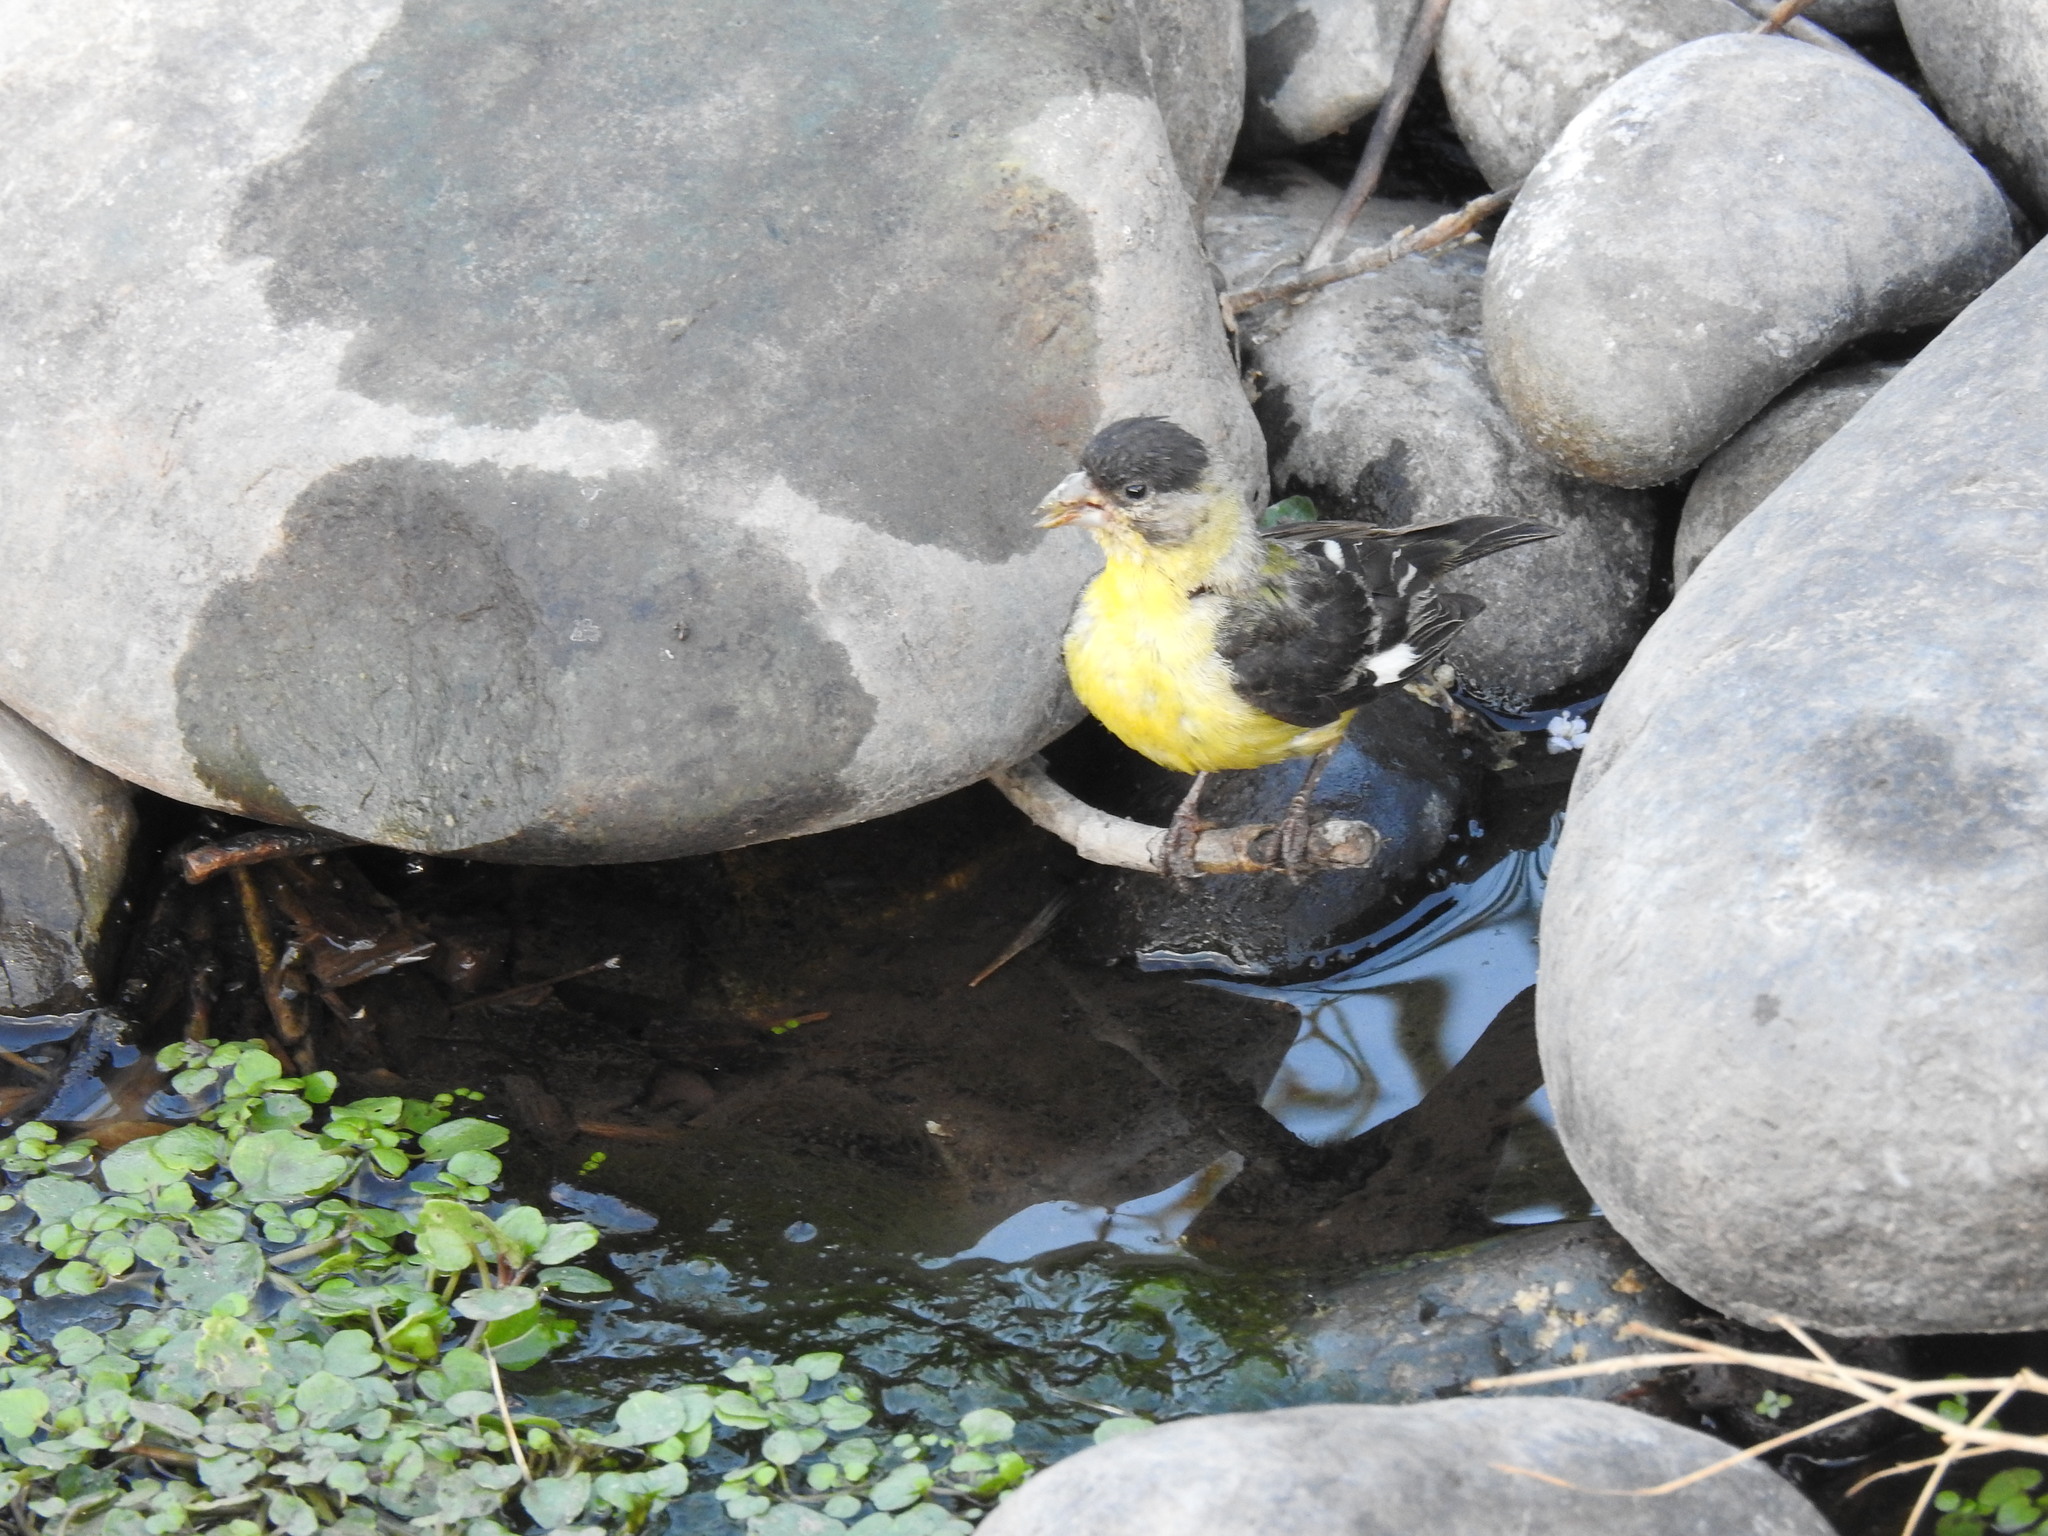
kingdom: Animalia
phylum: Chordata
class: Aves
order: Passeriformes
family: Fringillidae
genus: Spinus
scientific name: Spinus psaltria
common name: Lesser goldfinch
